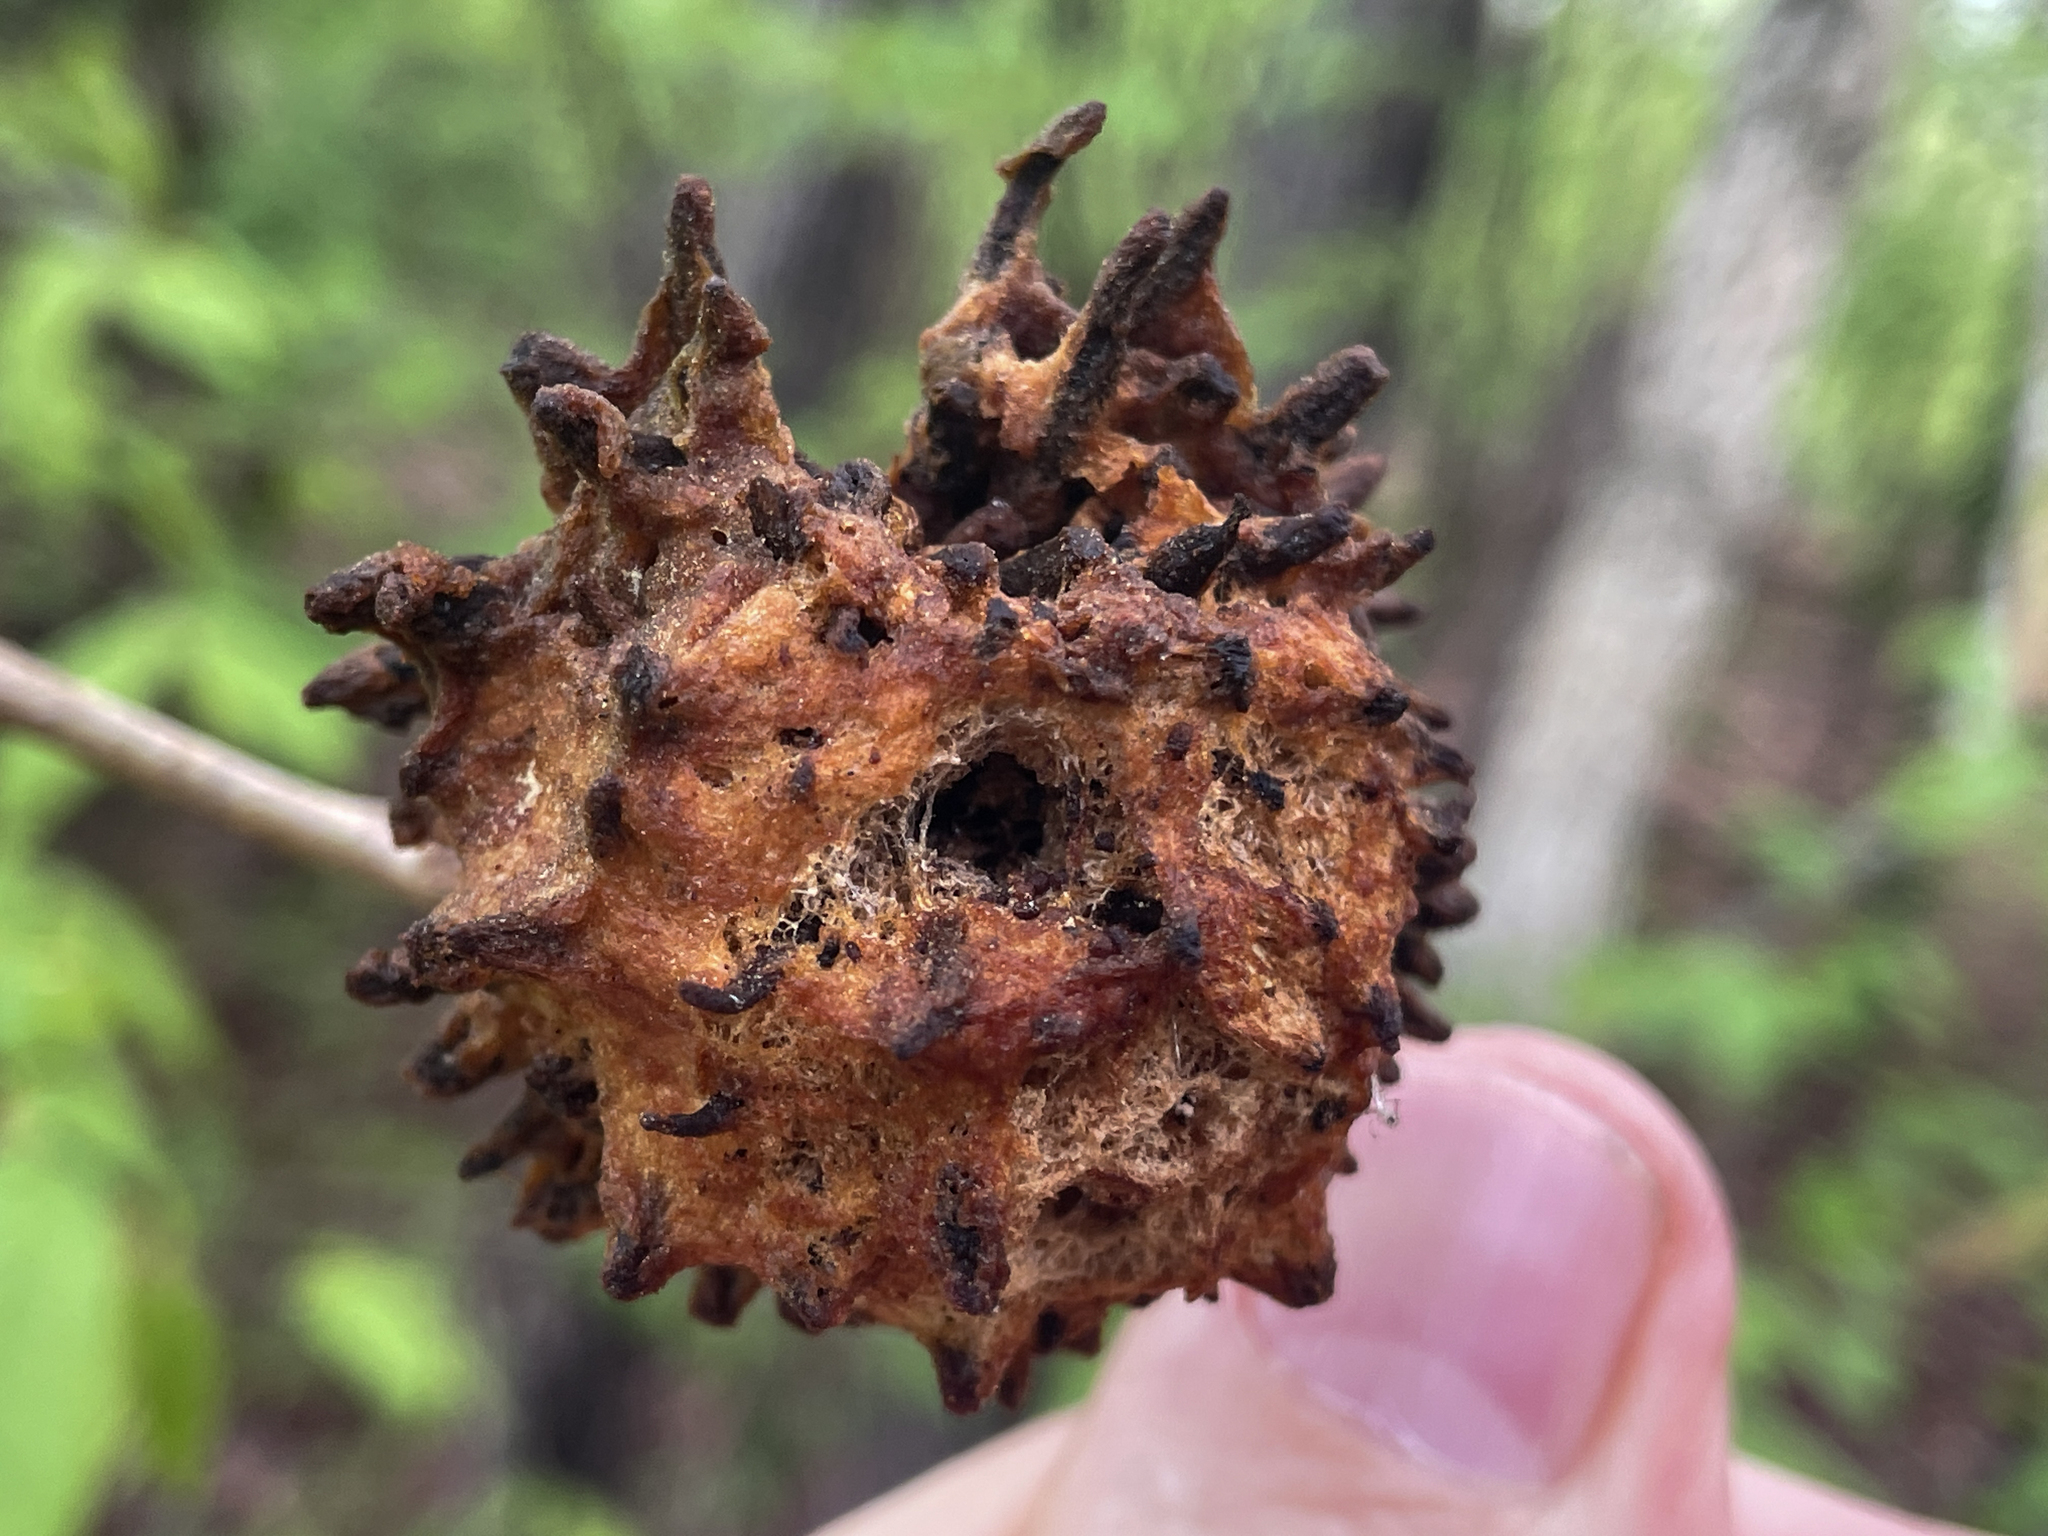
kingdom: Animalia
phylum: Arthropoda
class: Insecta
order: Hymenoptera
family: Cynipidae
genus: Callirhytis
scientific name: Callirhytis
